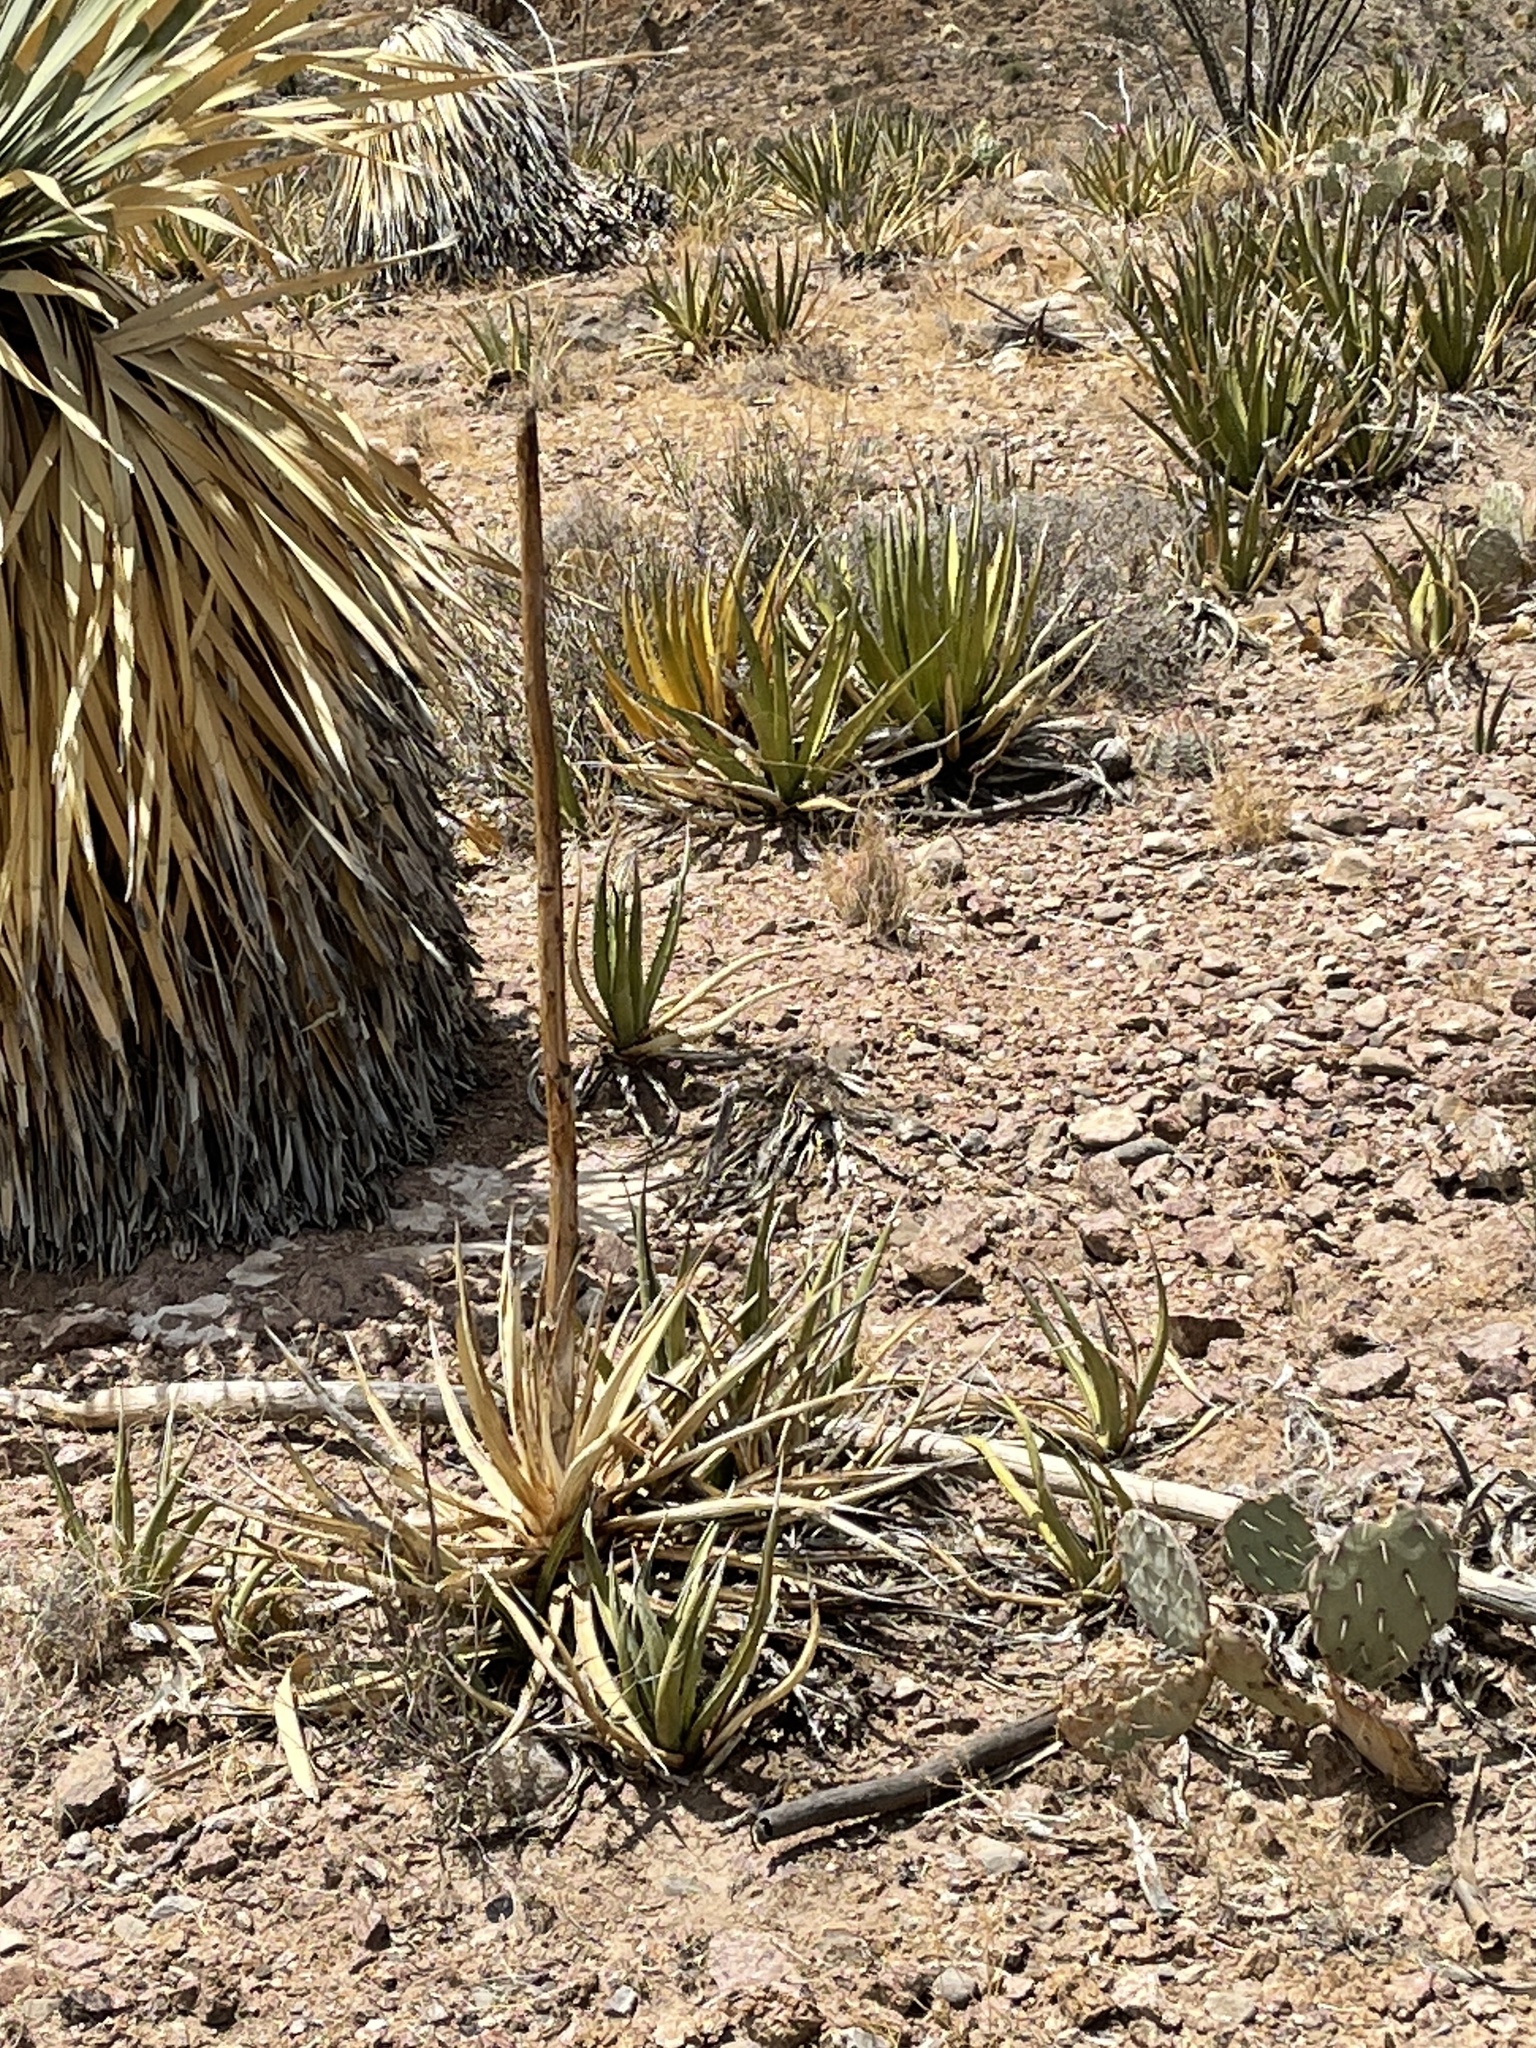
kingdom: Plantae
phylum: Tracheophyta
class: Liliopsida
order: Asparagales
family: Asparagaceae
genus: Agave
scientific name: Agave lechuguilla
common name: Lecheguilla agave
